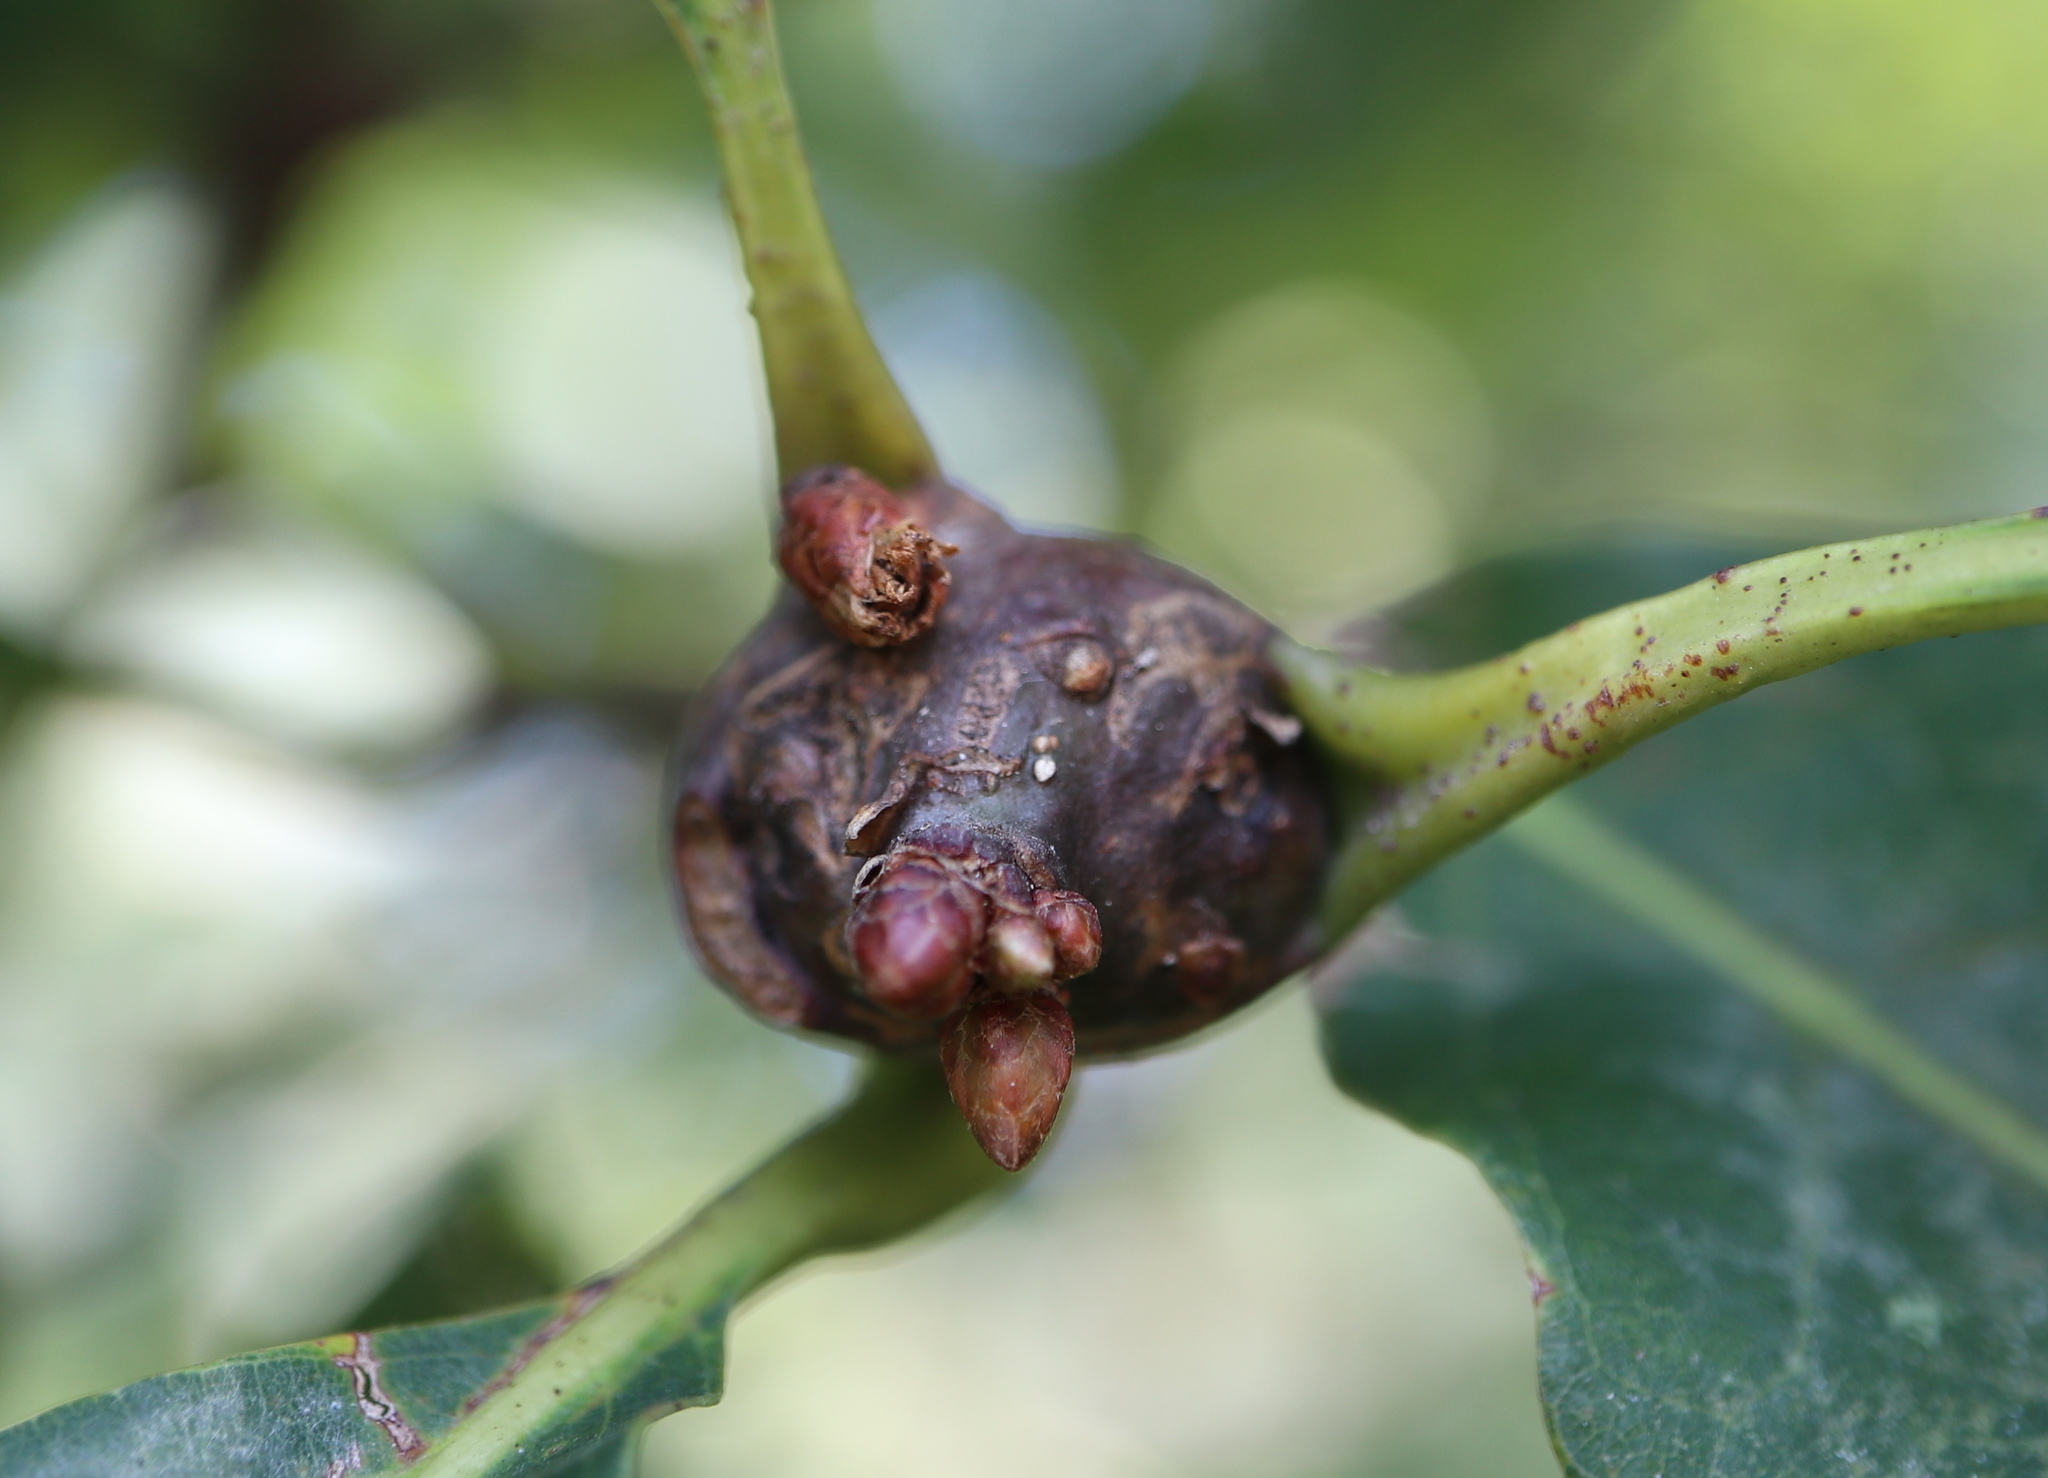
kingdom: Animalia
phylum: Arthropoda
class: Insecta
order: Hymenoptera
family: Cynipidae
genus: Callirhytis
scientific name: Callirhytis clavula
